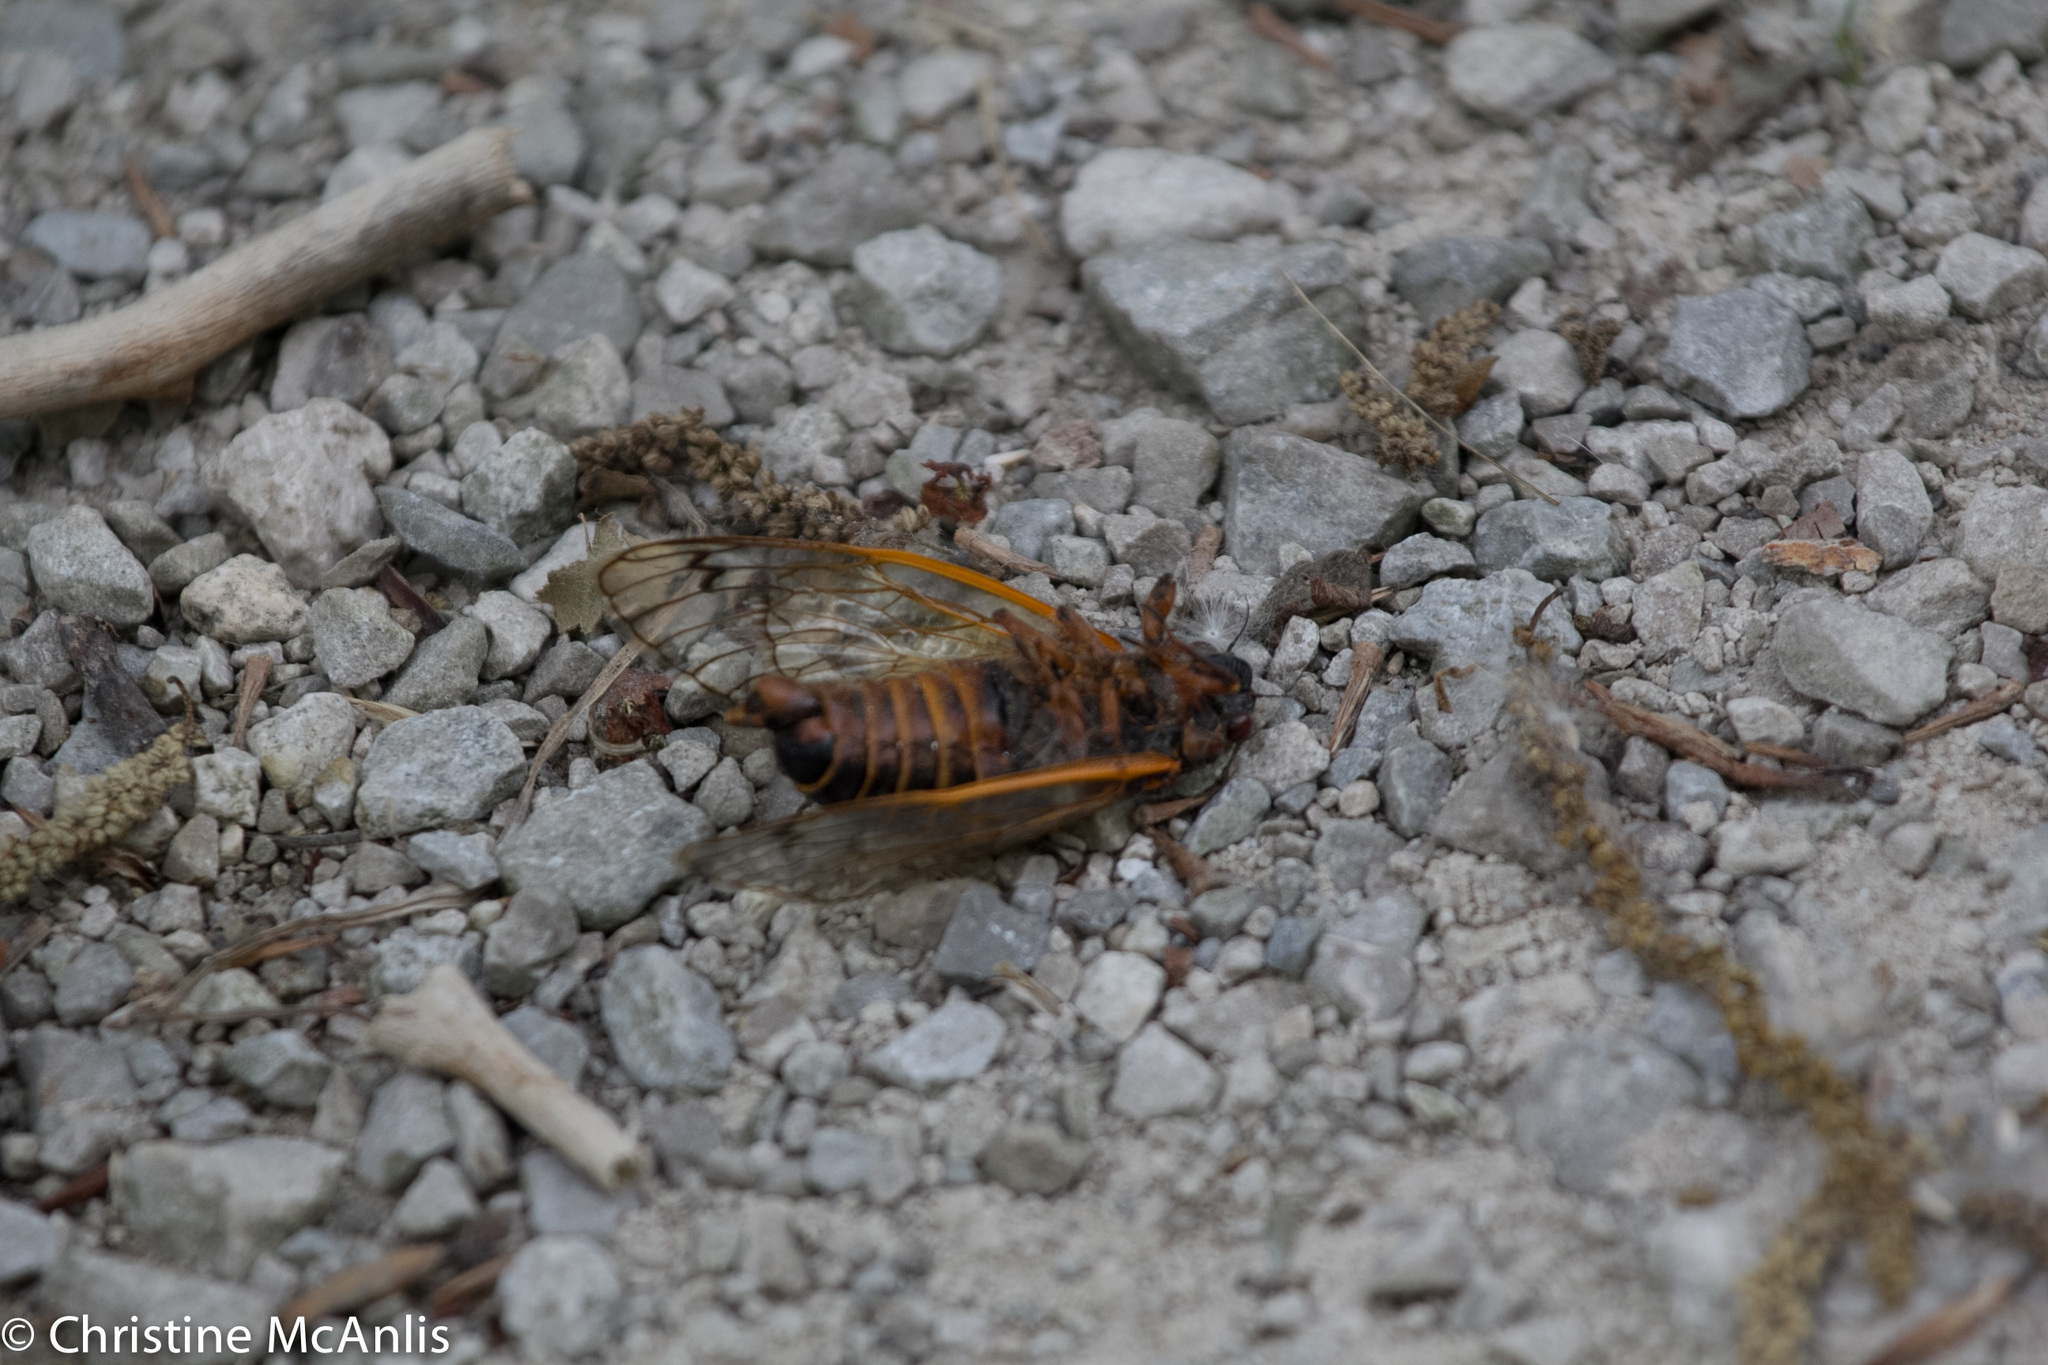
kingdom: Animalia
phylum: Arthropoda
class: Insecta
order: Hemiptera
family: Cicadidae
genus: Magicicada
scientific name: Magicicada septendecim
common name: Periodical cicada
